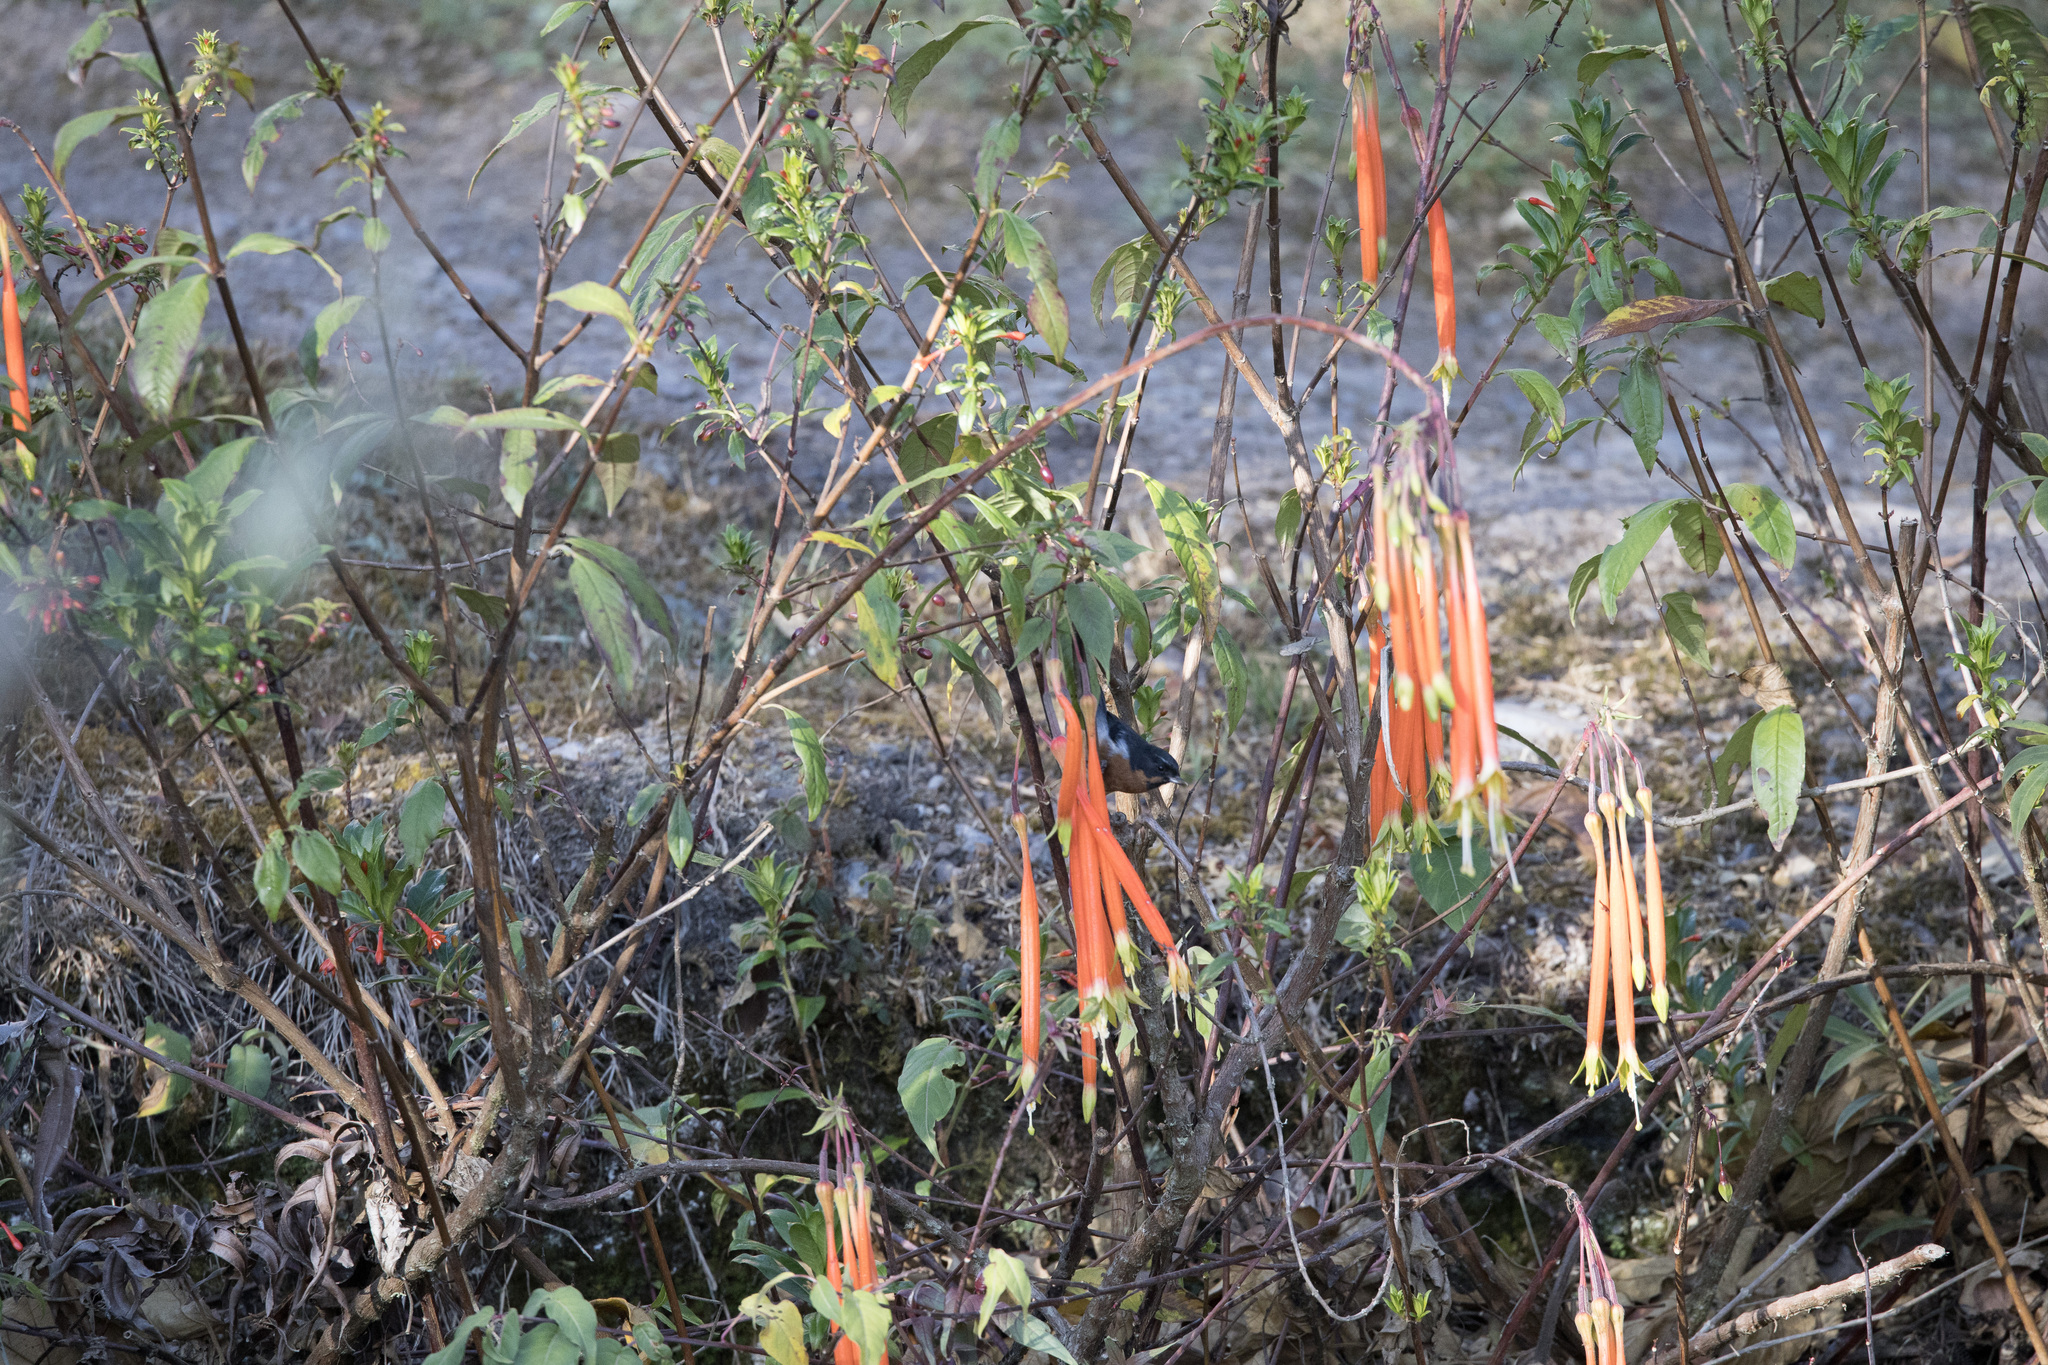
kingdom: Plantae
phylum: Tracheophyta
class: Magnoliopsida
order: Myrtales
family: Onagraceae
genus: Fuchsia
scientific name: Fuchsia inflata
